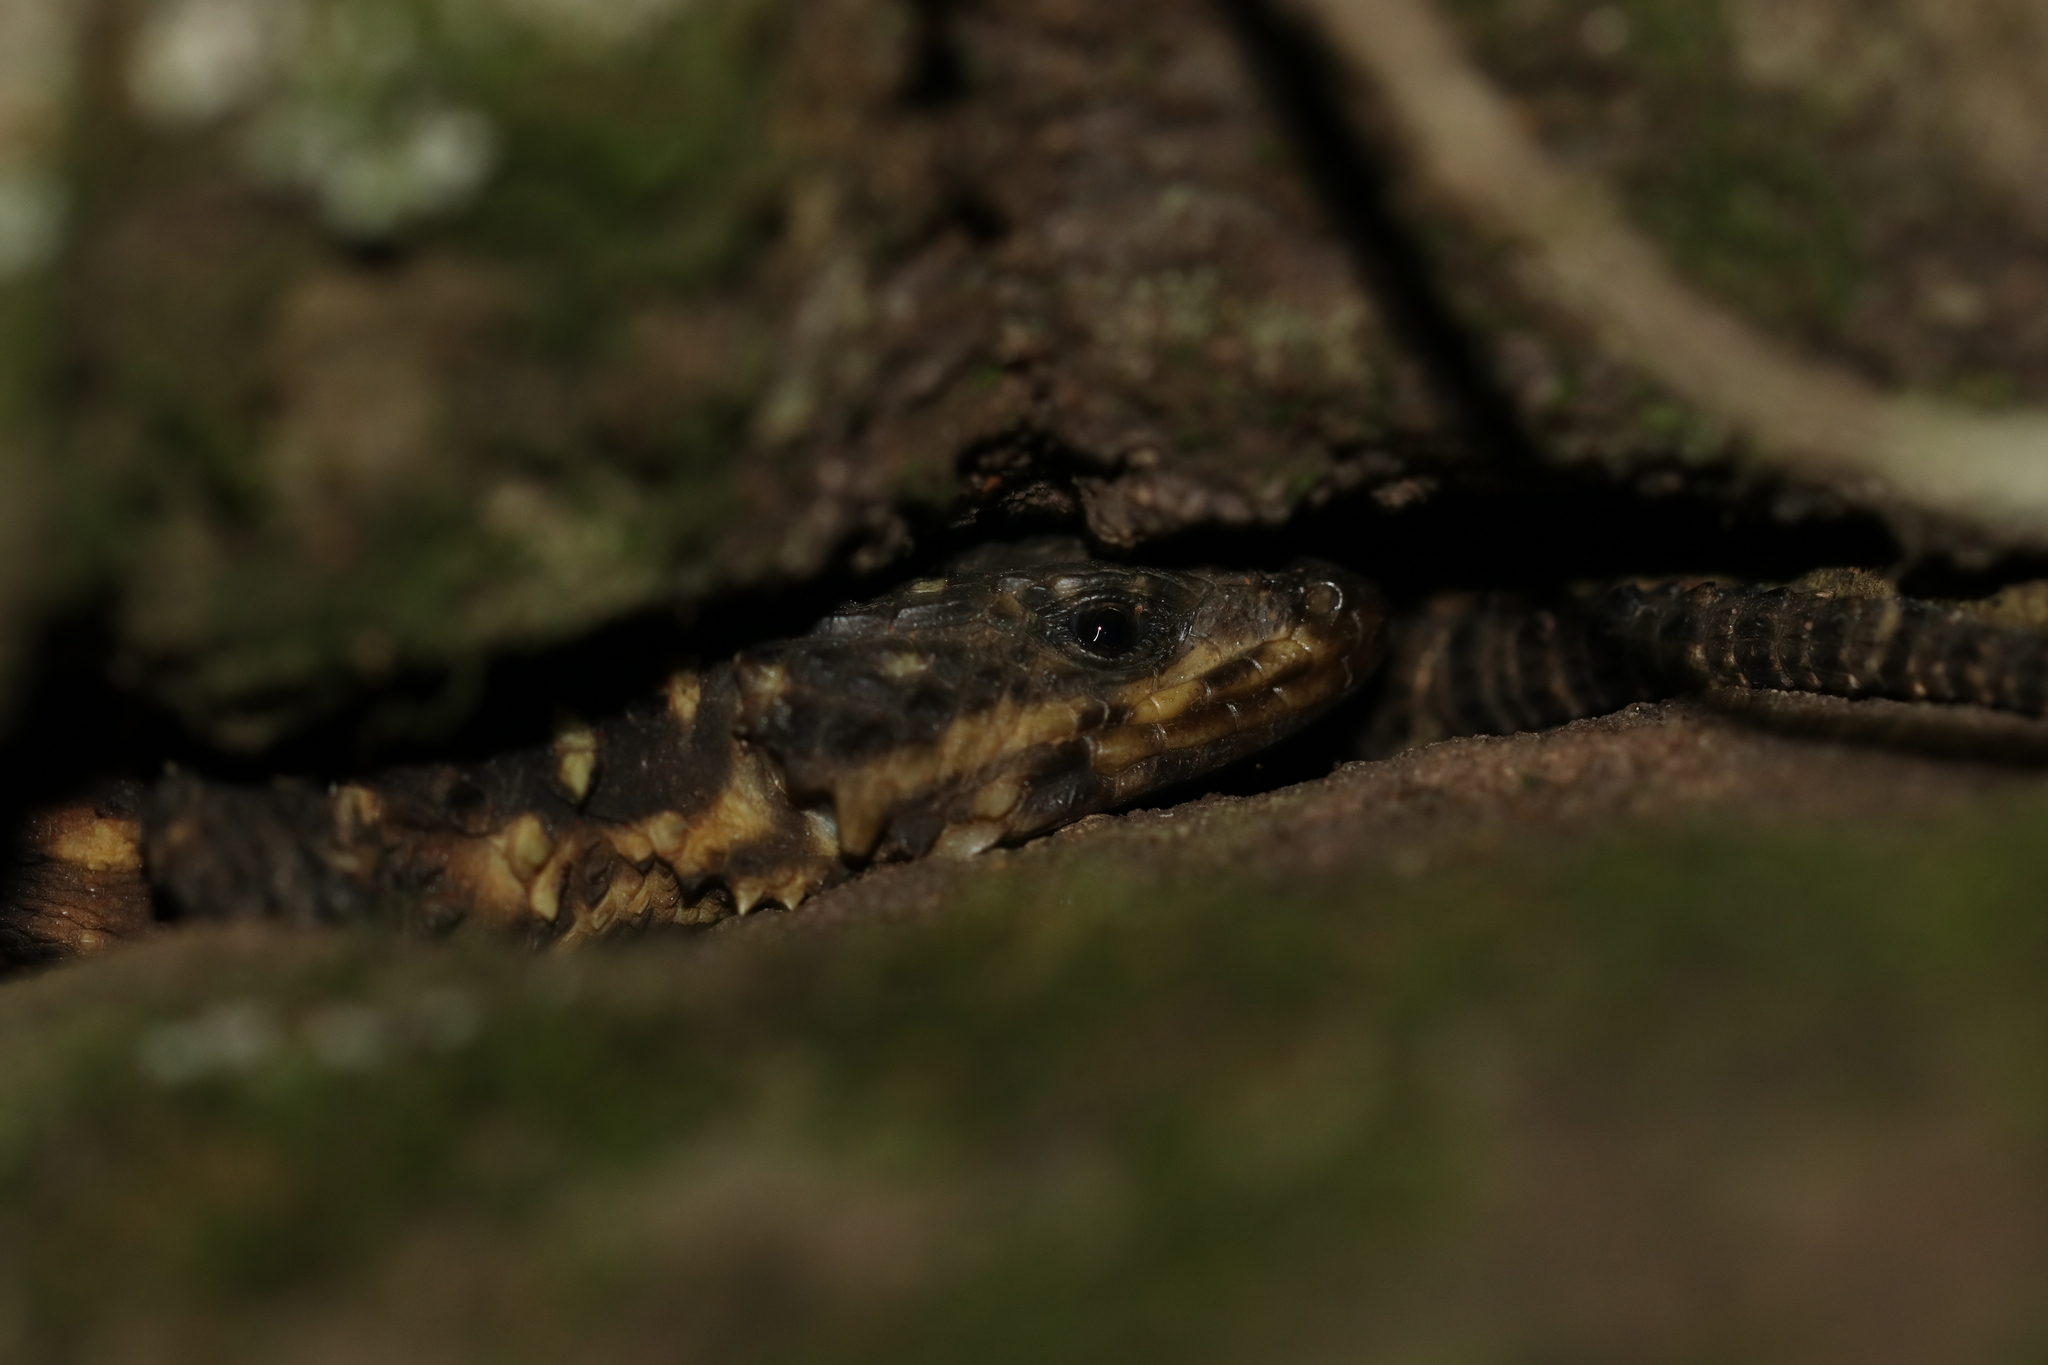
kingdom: Animalia
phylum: Chordata
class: Squamata
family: Cordylidae
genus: Smaug
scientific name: Smaug depressus
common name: Flat dragon lizard
